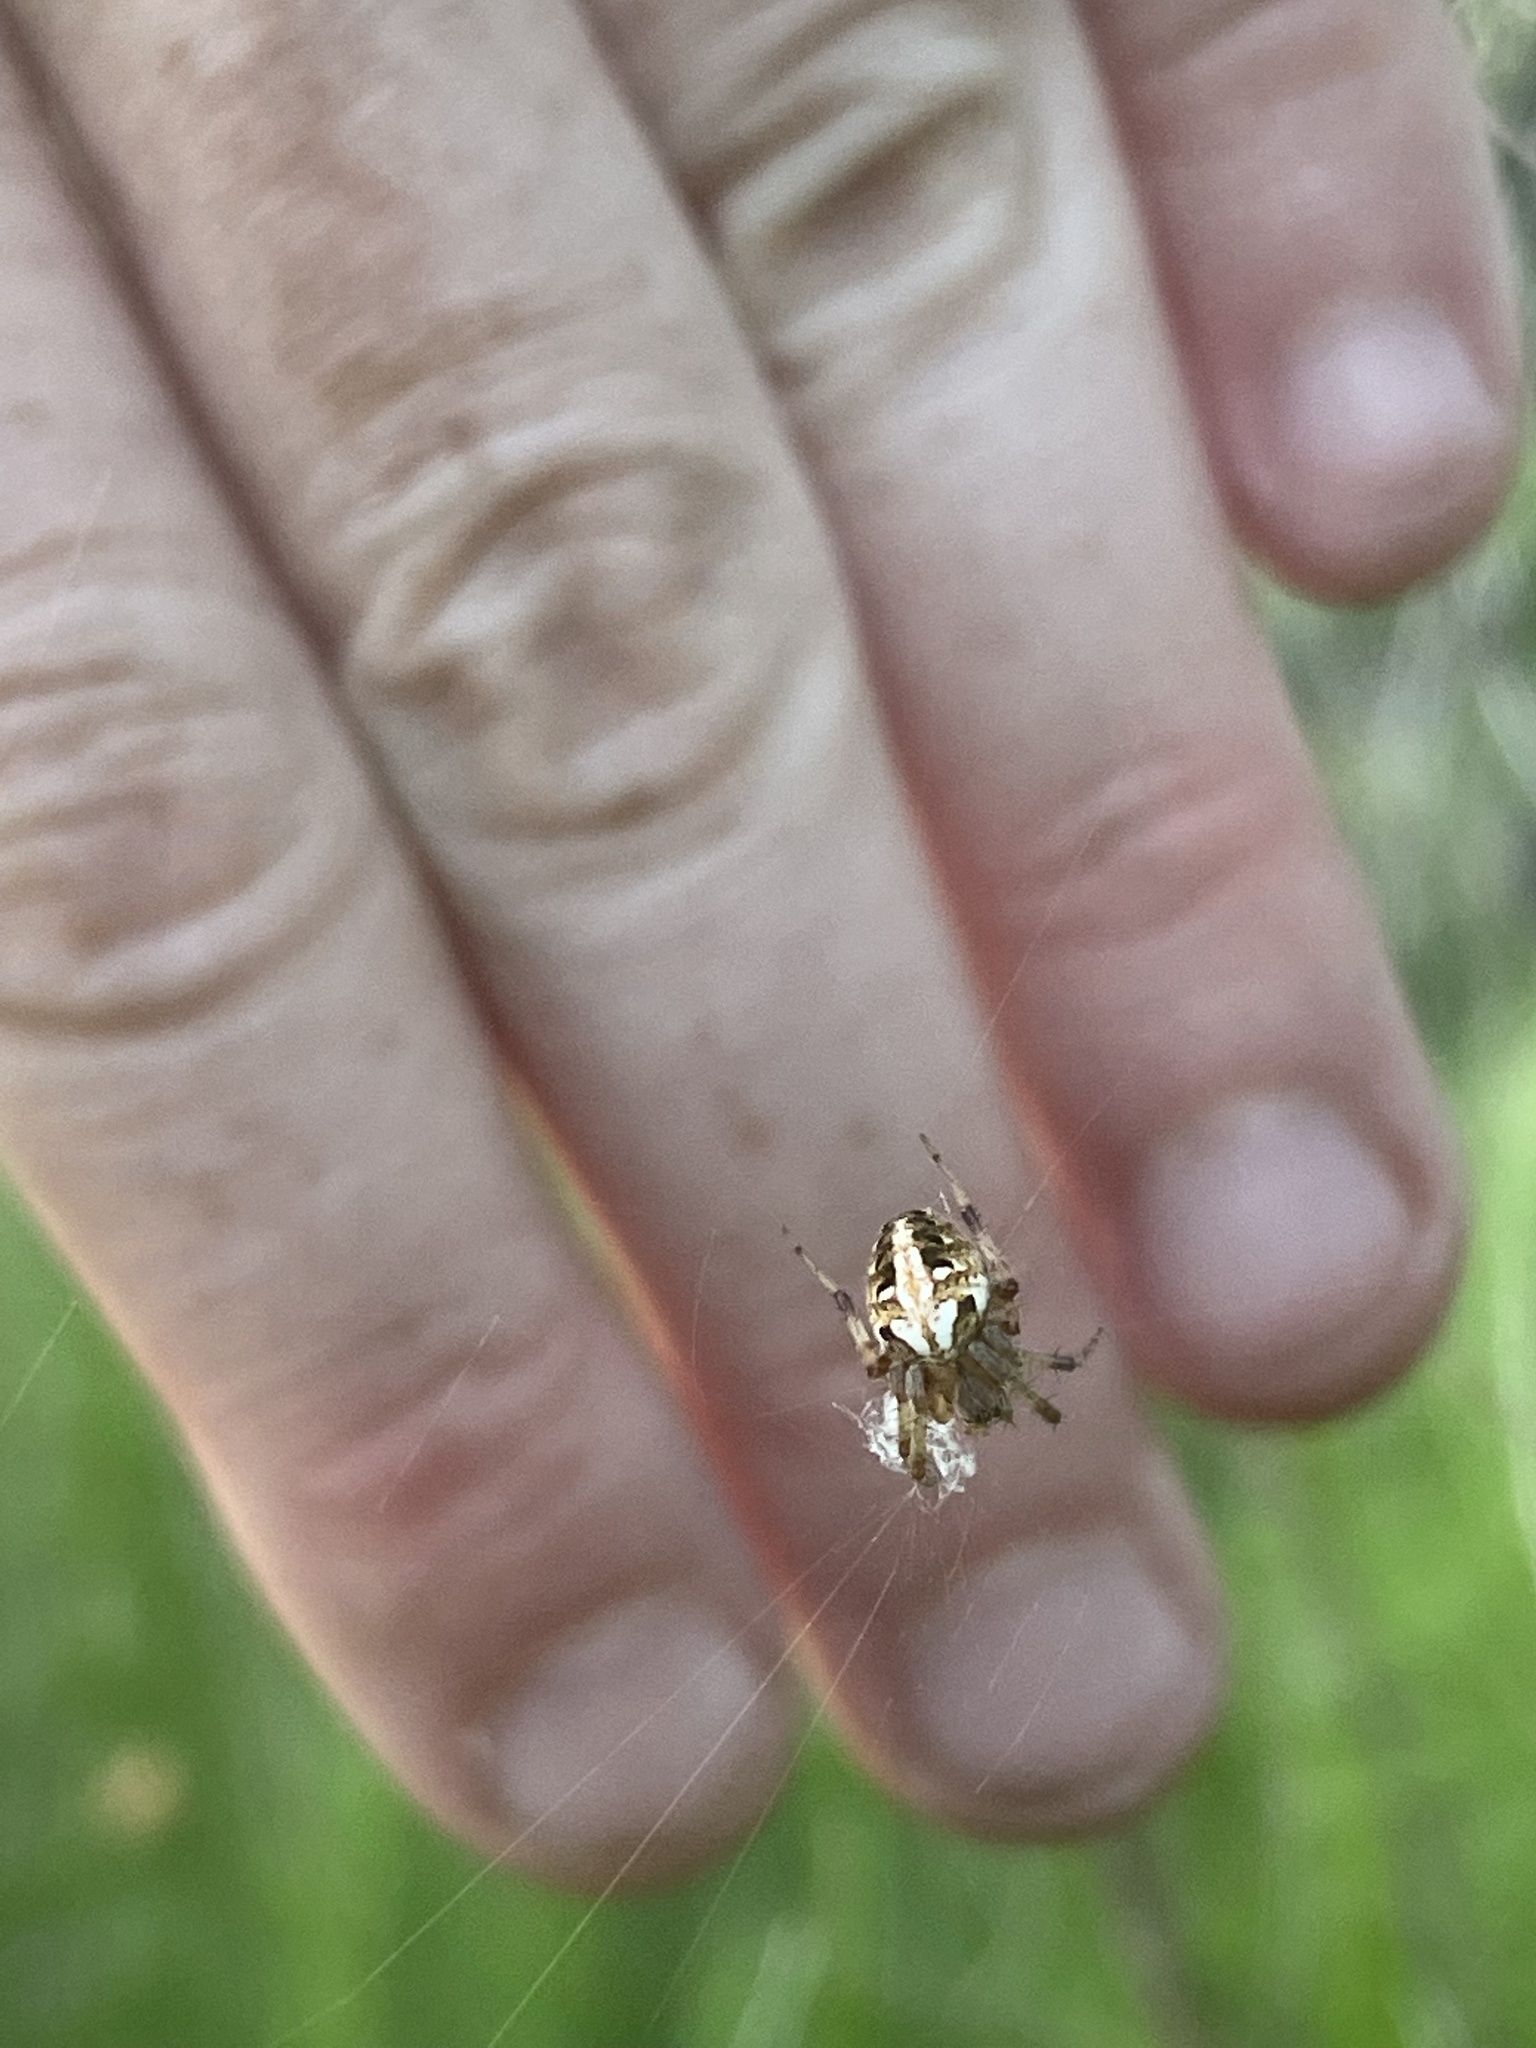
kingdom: Animalia
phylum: Arthropoda
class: Arachnida
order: Araneae
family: Araneidae
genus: Neoscona
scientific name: Neoscona arabesca
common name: Orb weavers
